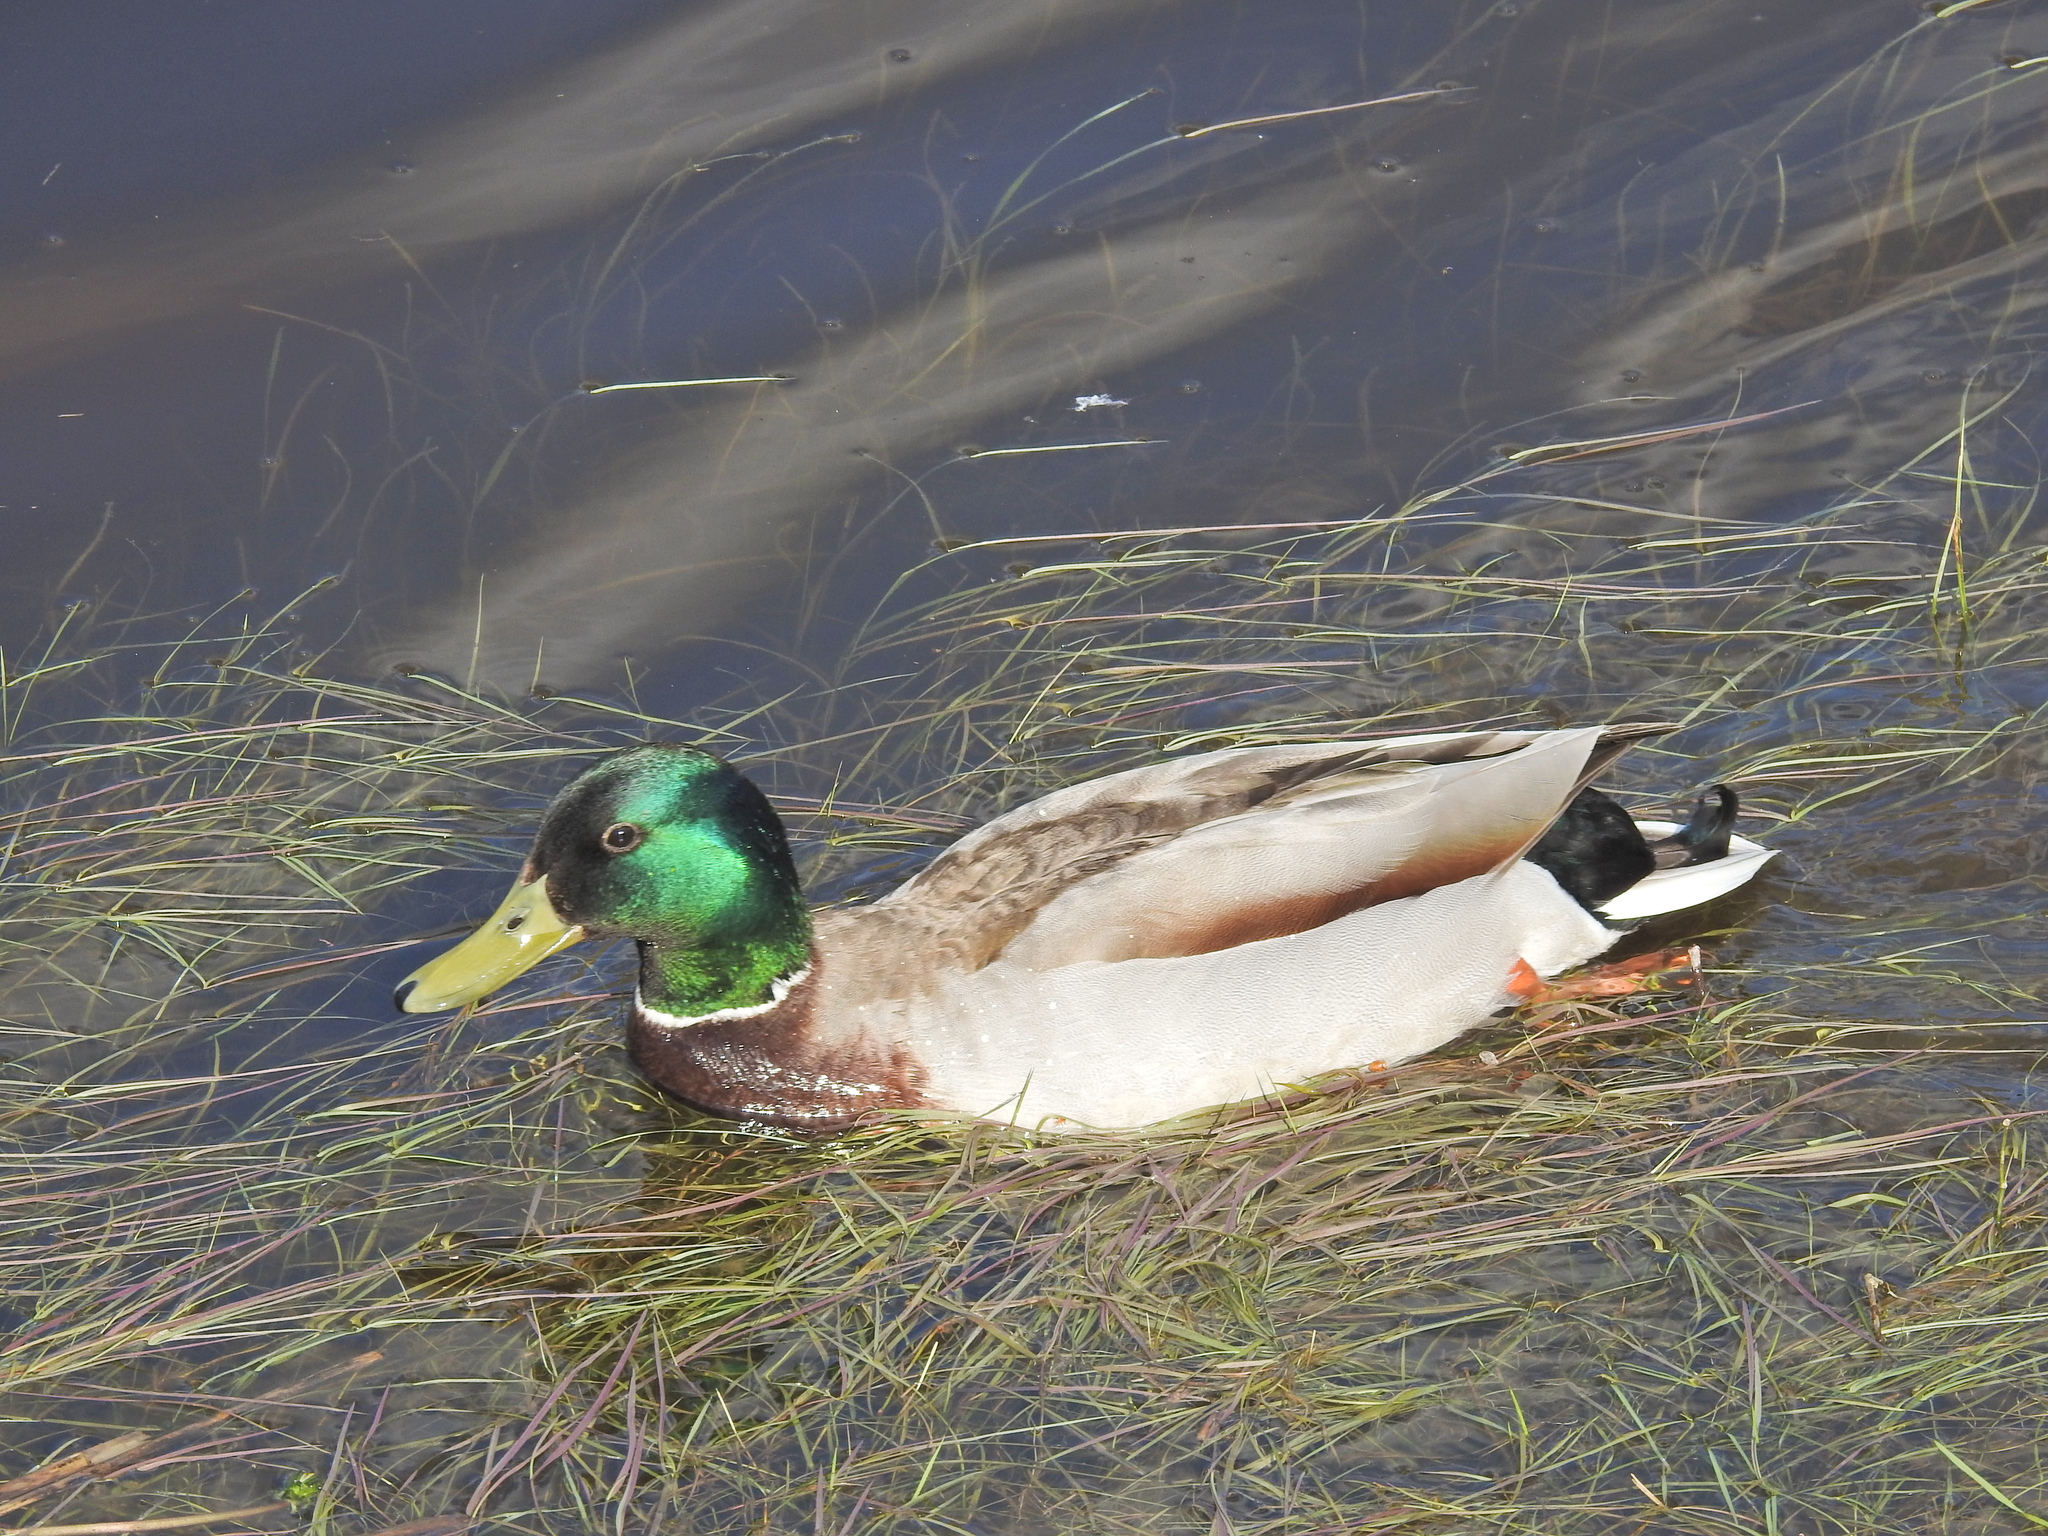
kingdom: Animalia
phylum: Chordata
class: Aves
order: Anseriformes
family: Anatidae
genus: Anas
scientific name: Anas platyrhynchos
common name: Mallard
